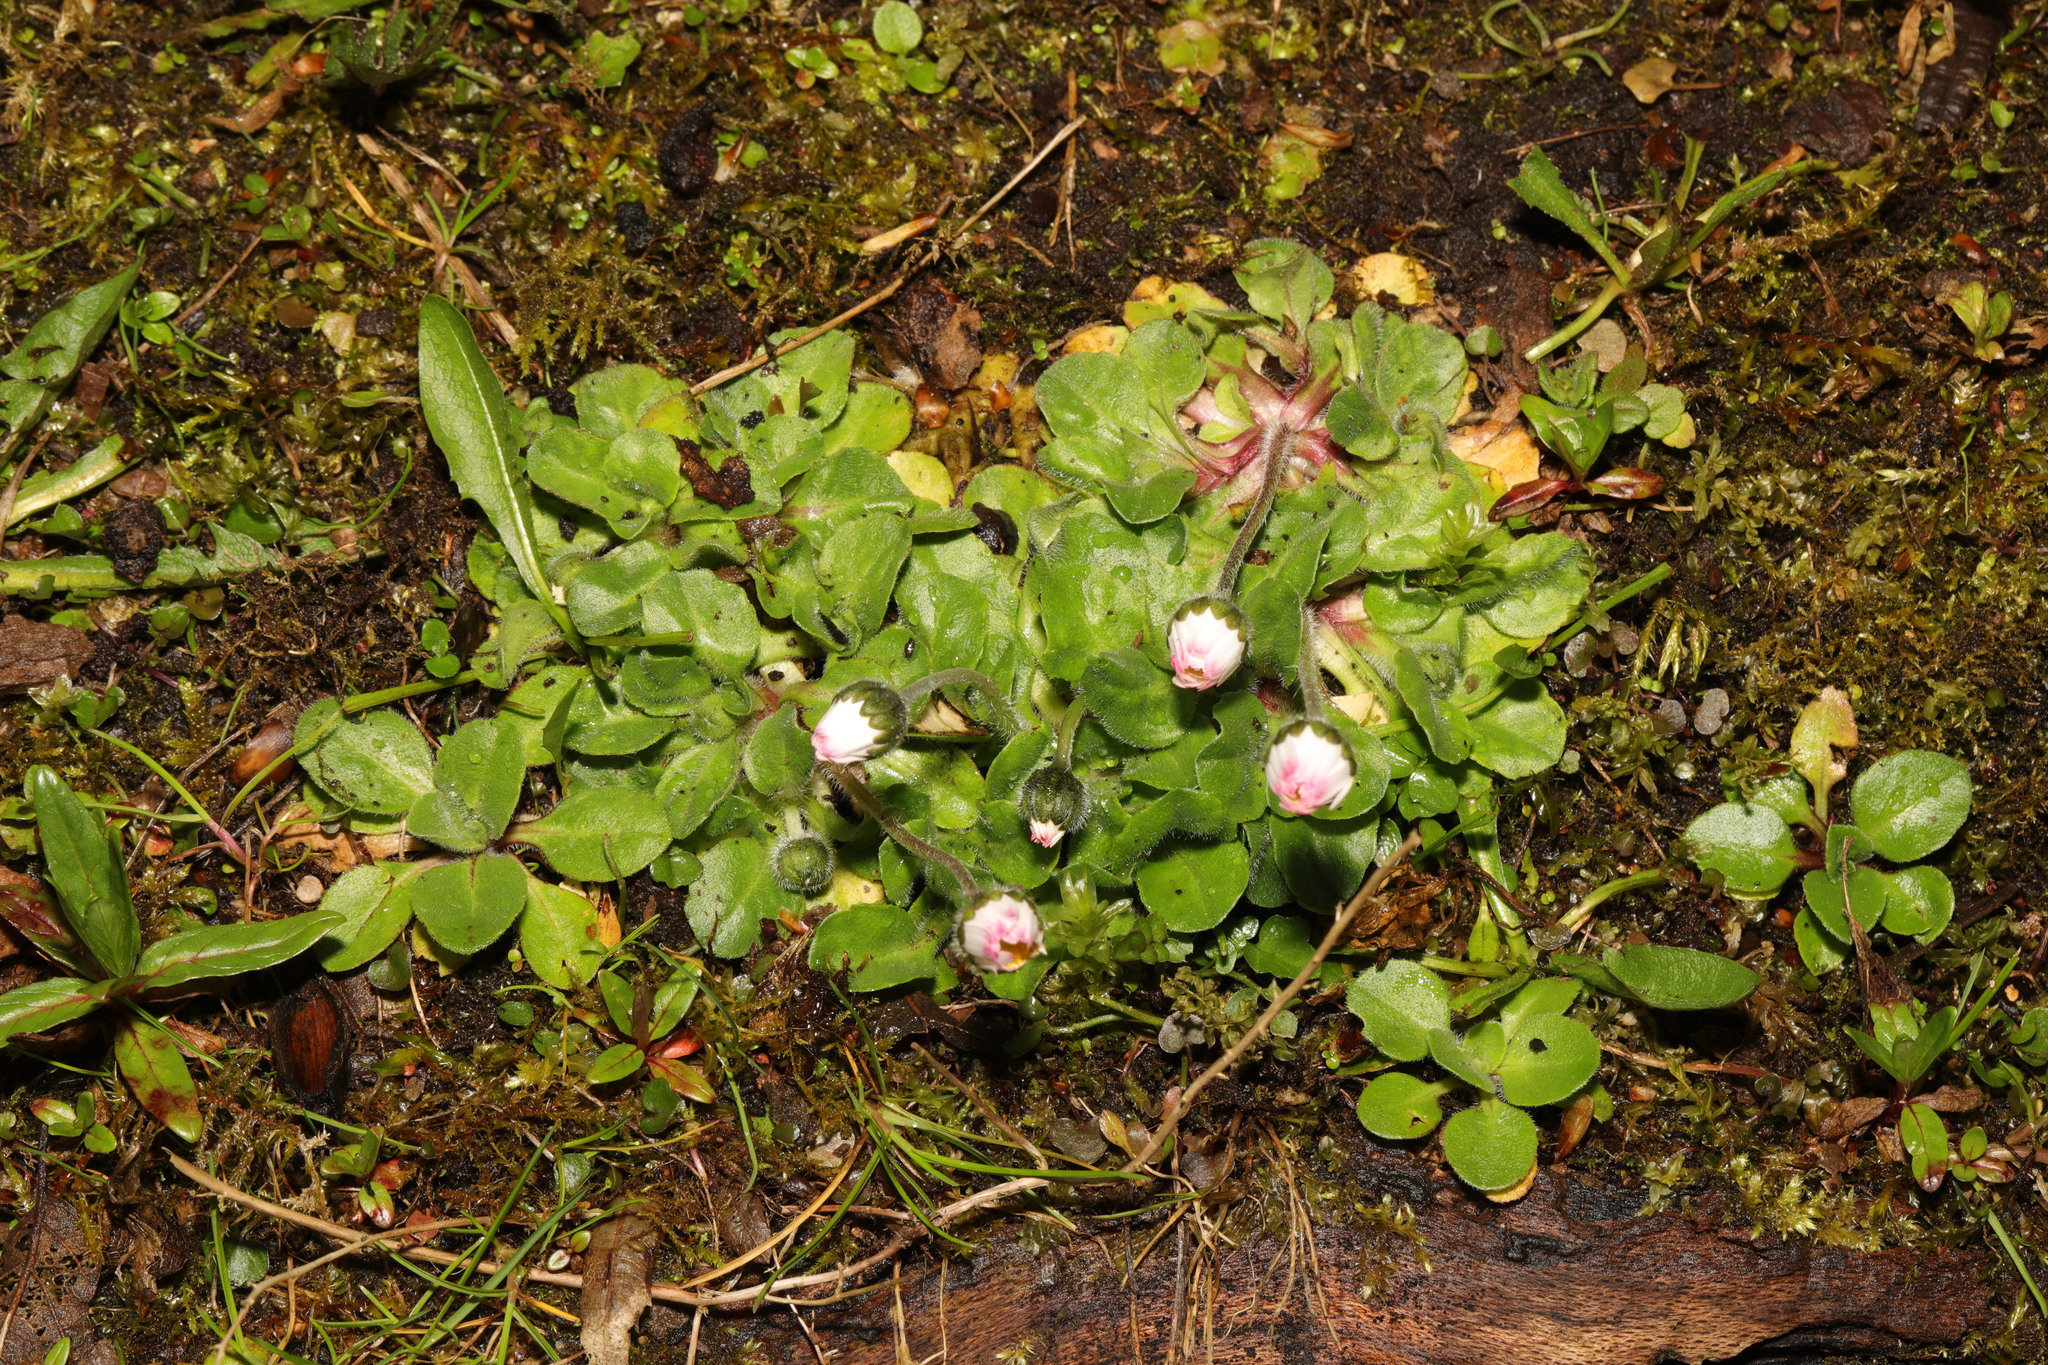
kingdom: Plantae
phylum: Tracheophyta
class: Magnoliopsida
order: Asterales
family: Asteraceae
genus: Bellis
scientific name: Bellis perennis
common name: Lawndaisy
